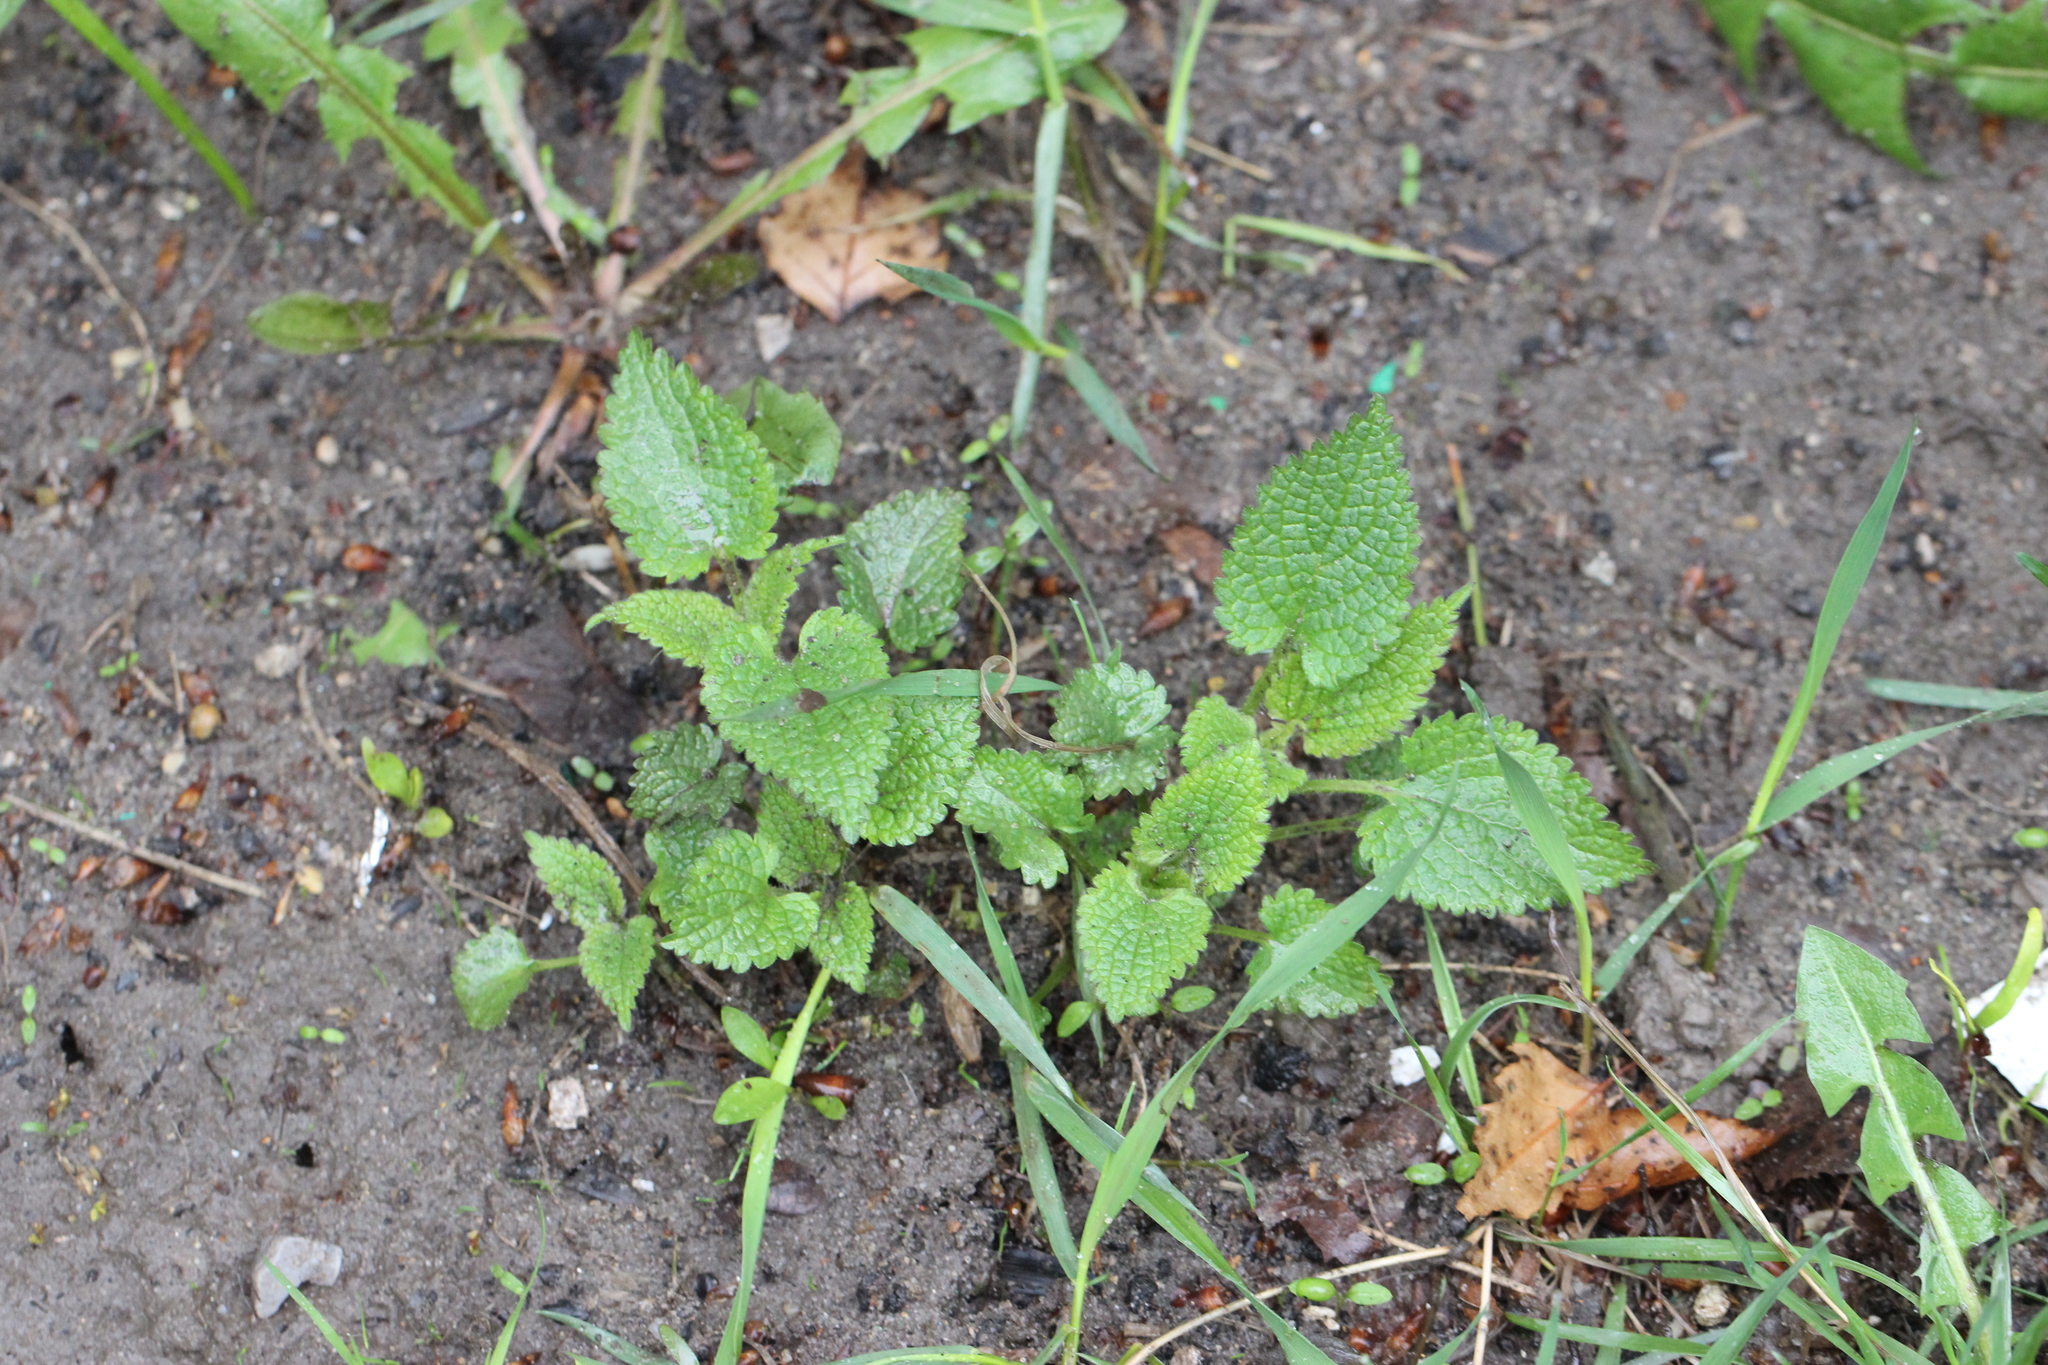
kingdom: Plantae
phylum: Tracheophyta
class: Magnoliopsida
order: Lamiales
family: Lamiaceae
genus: Lamium
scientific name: Lamium album
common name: White dead-nettle
